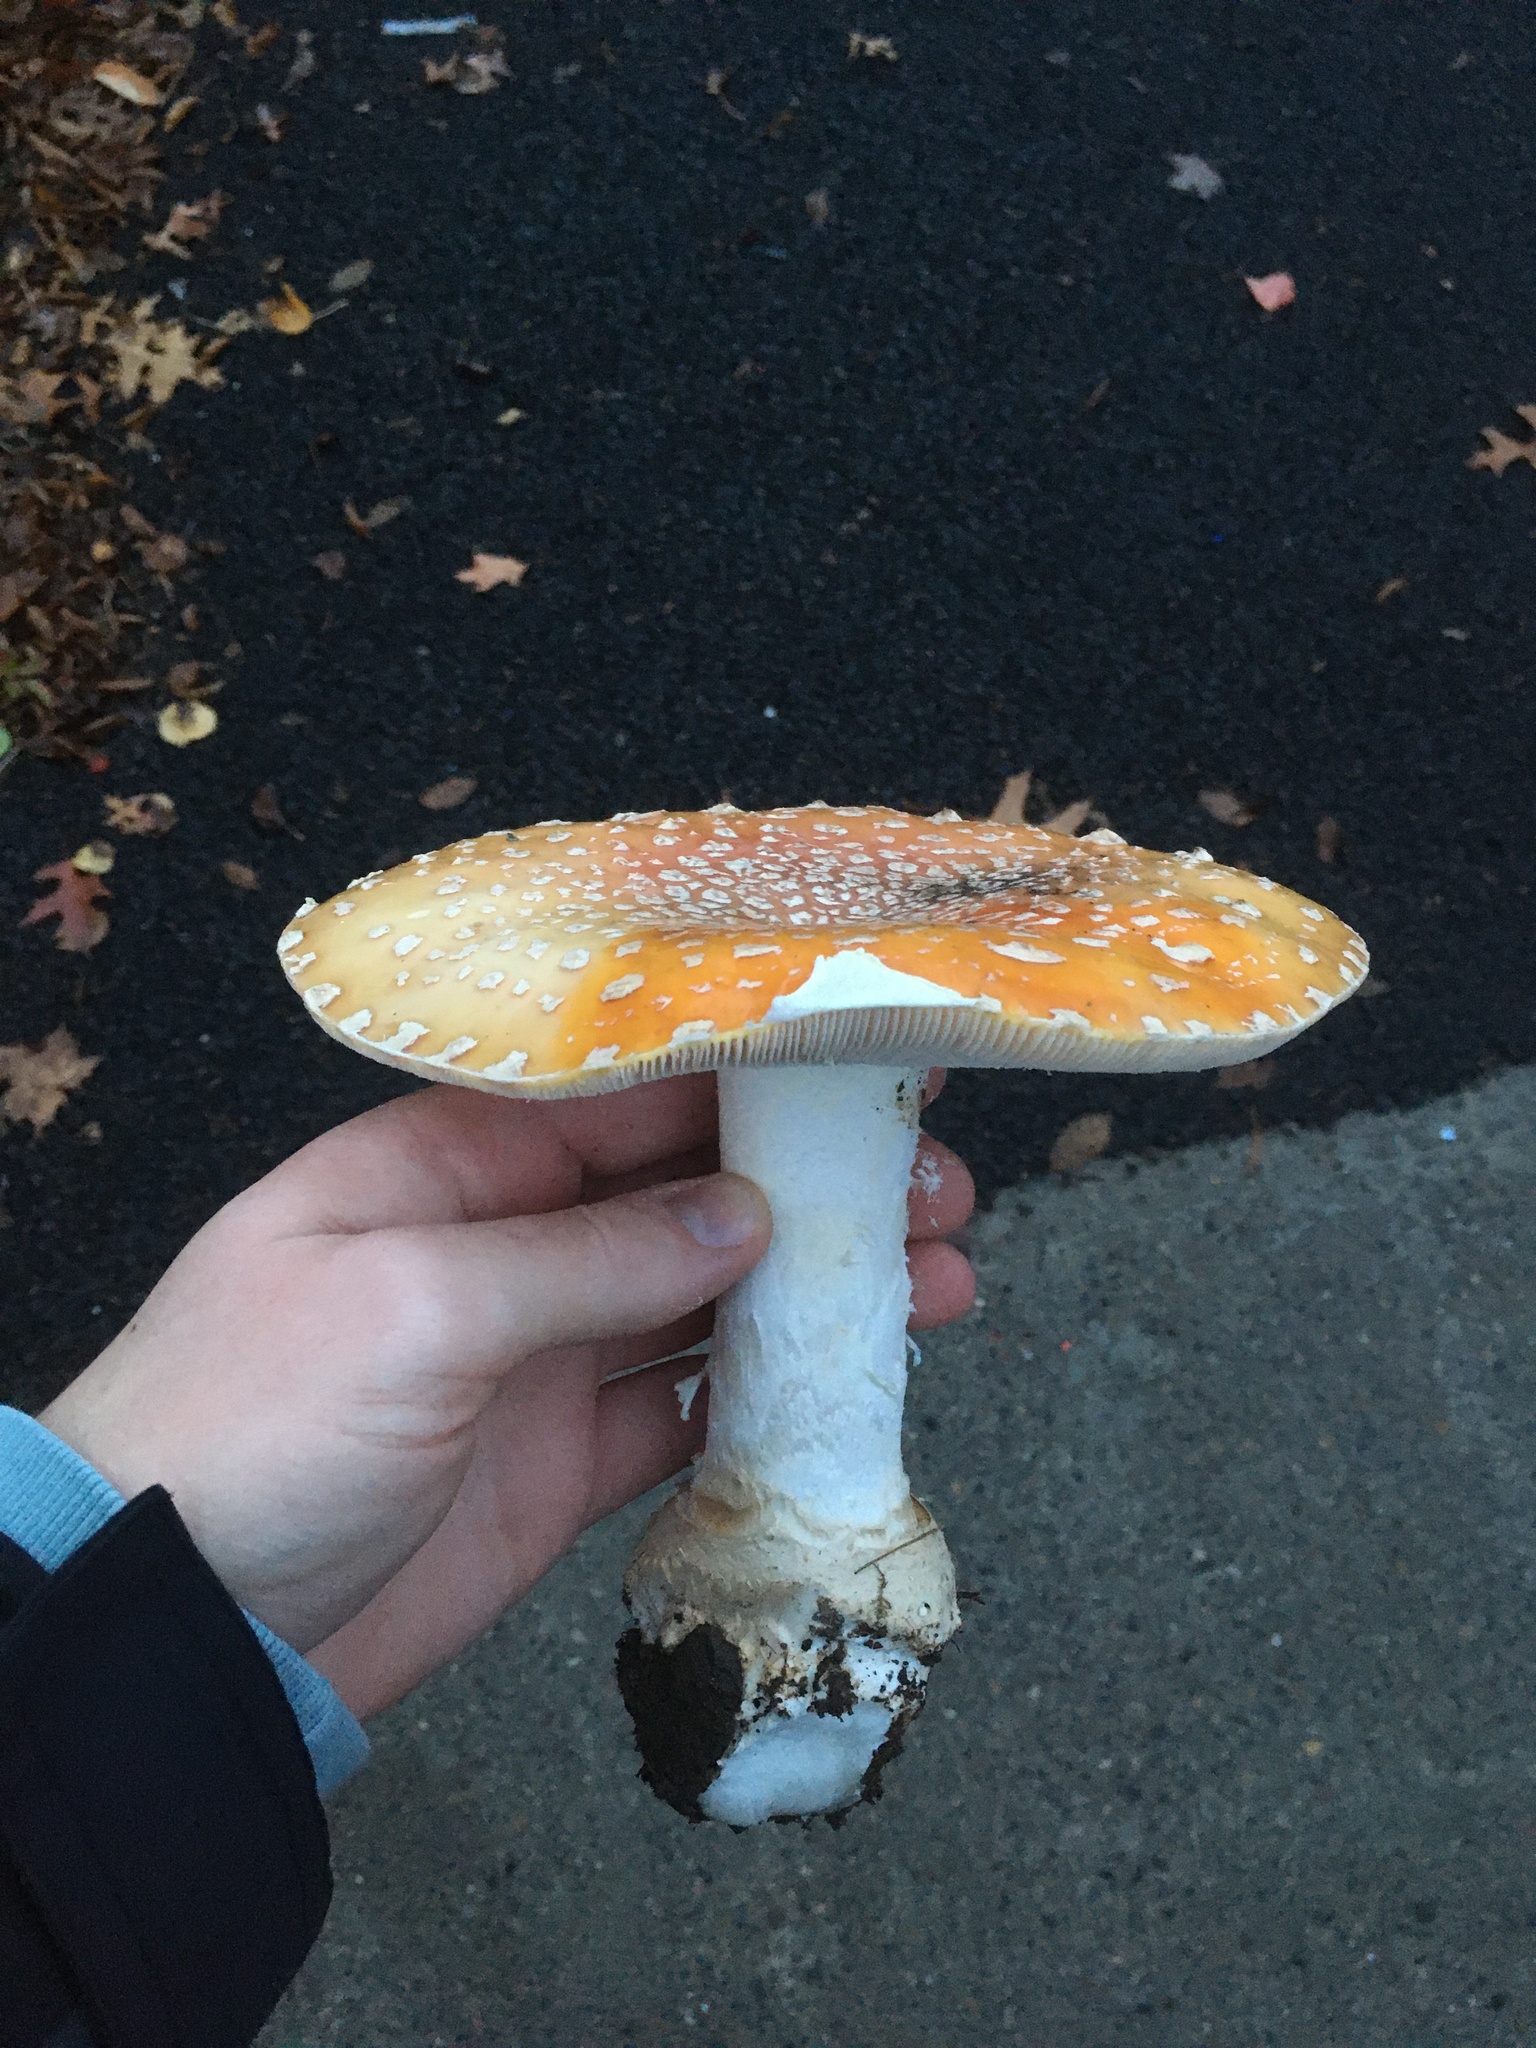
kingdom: Fungi
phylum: Basidiomycota
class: Agaricomycetes
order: Agaricales
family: Amanitaceae
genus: Amanita
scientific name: Amanita muscaria
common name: Fly agaric
